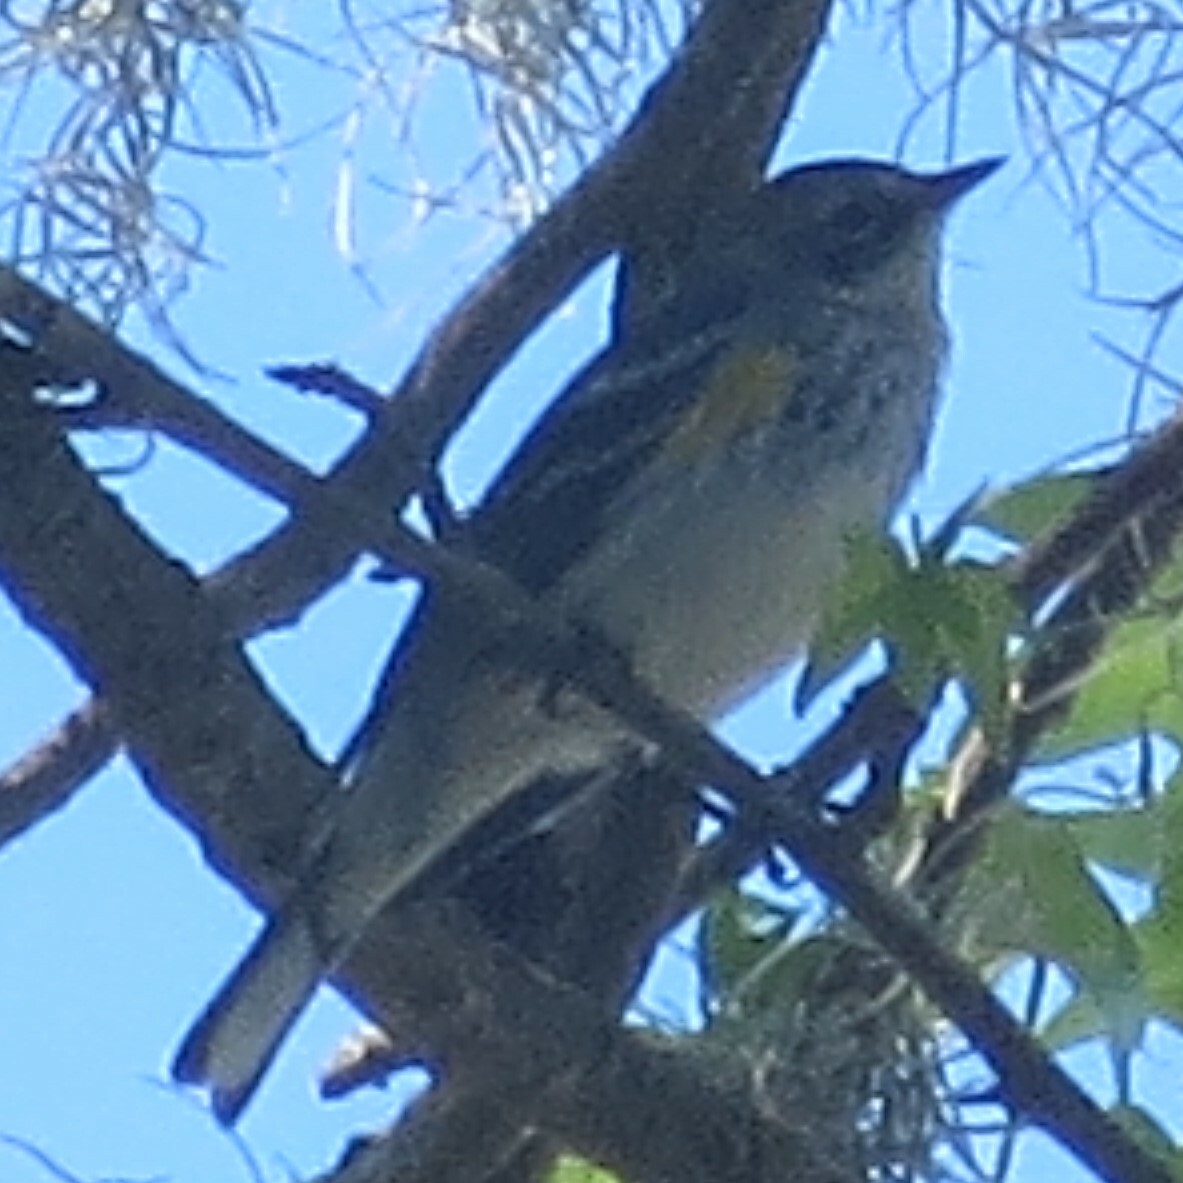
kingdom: Animalia
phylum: Chordata
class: Aves
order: Passeriformes
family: Parulidae
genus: Setophaga
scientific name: Setophaga coronata
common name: Myrtle warbler
